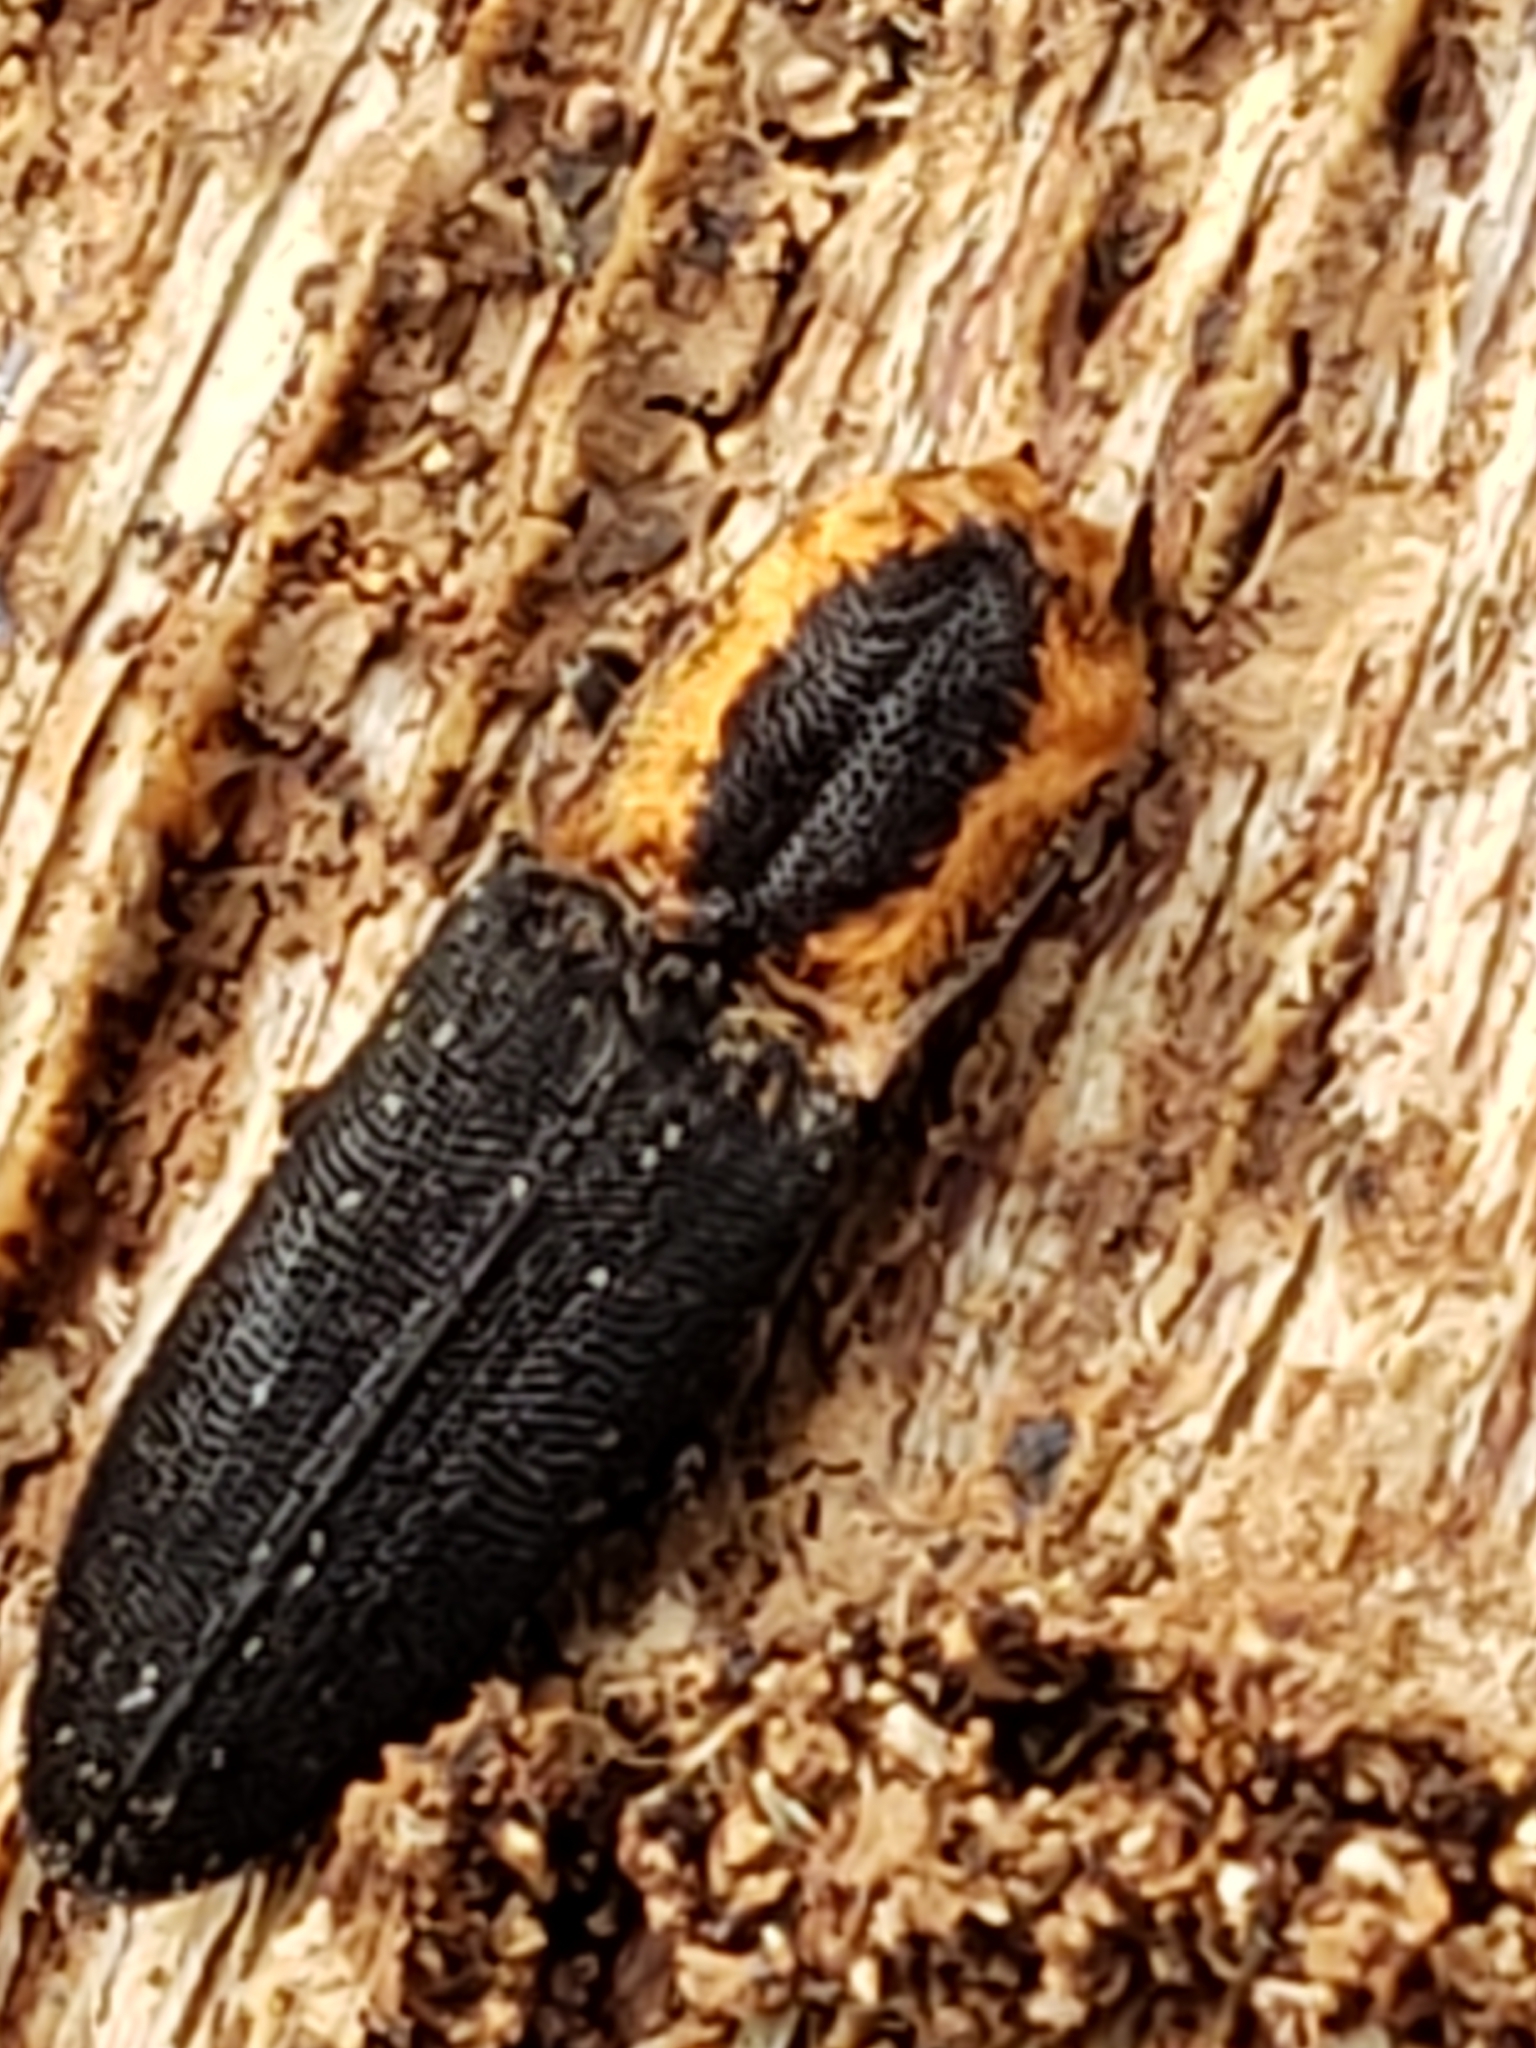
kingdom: Animalia
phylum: Arthropoda
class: Insecta
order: Coleoptera
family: Elateridae
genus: Lacon
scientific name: Lacon discoideus
